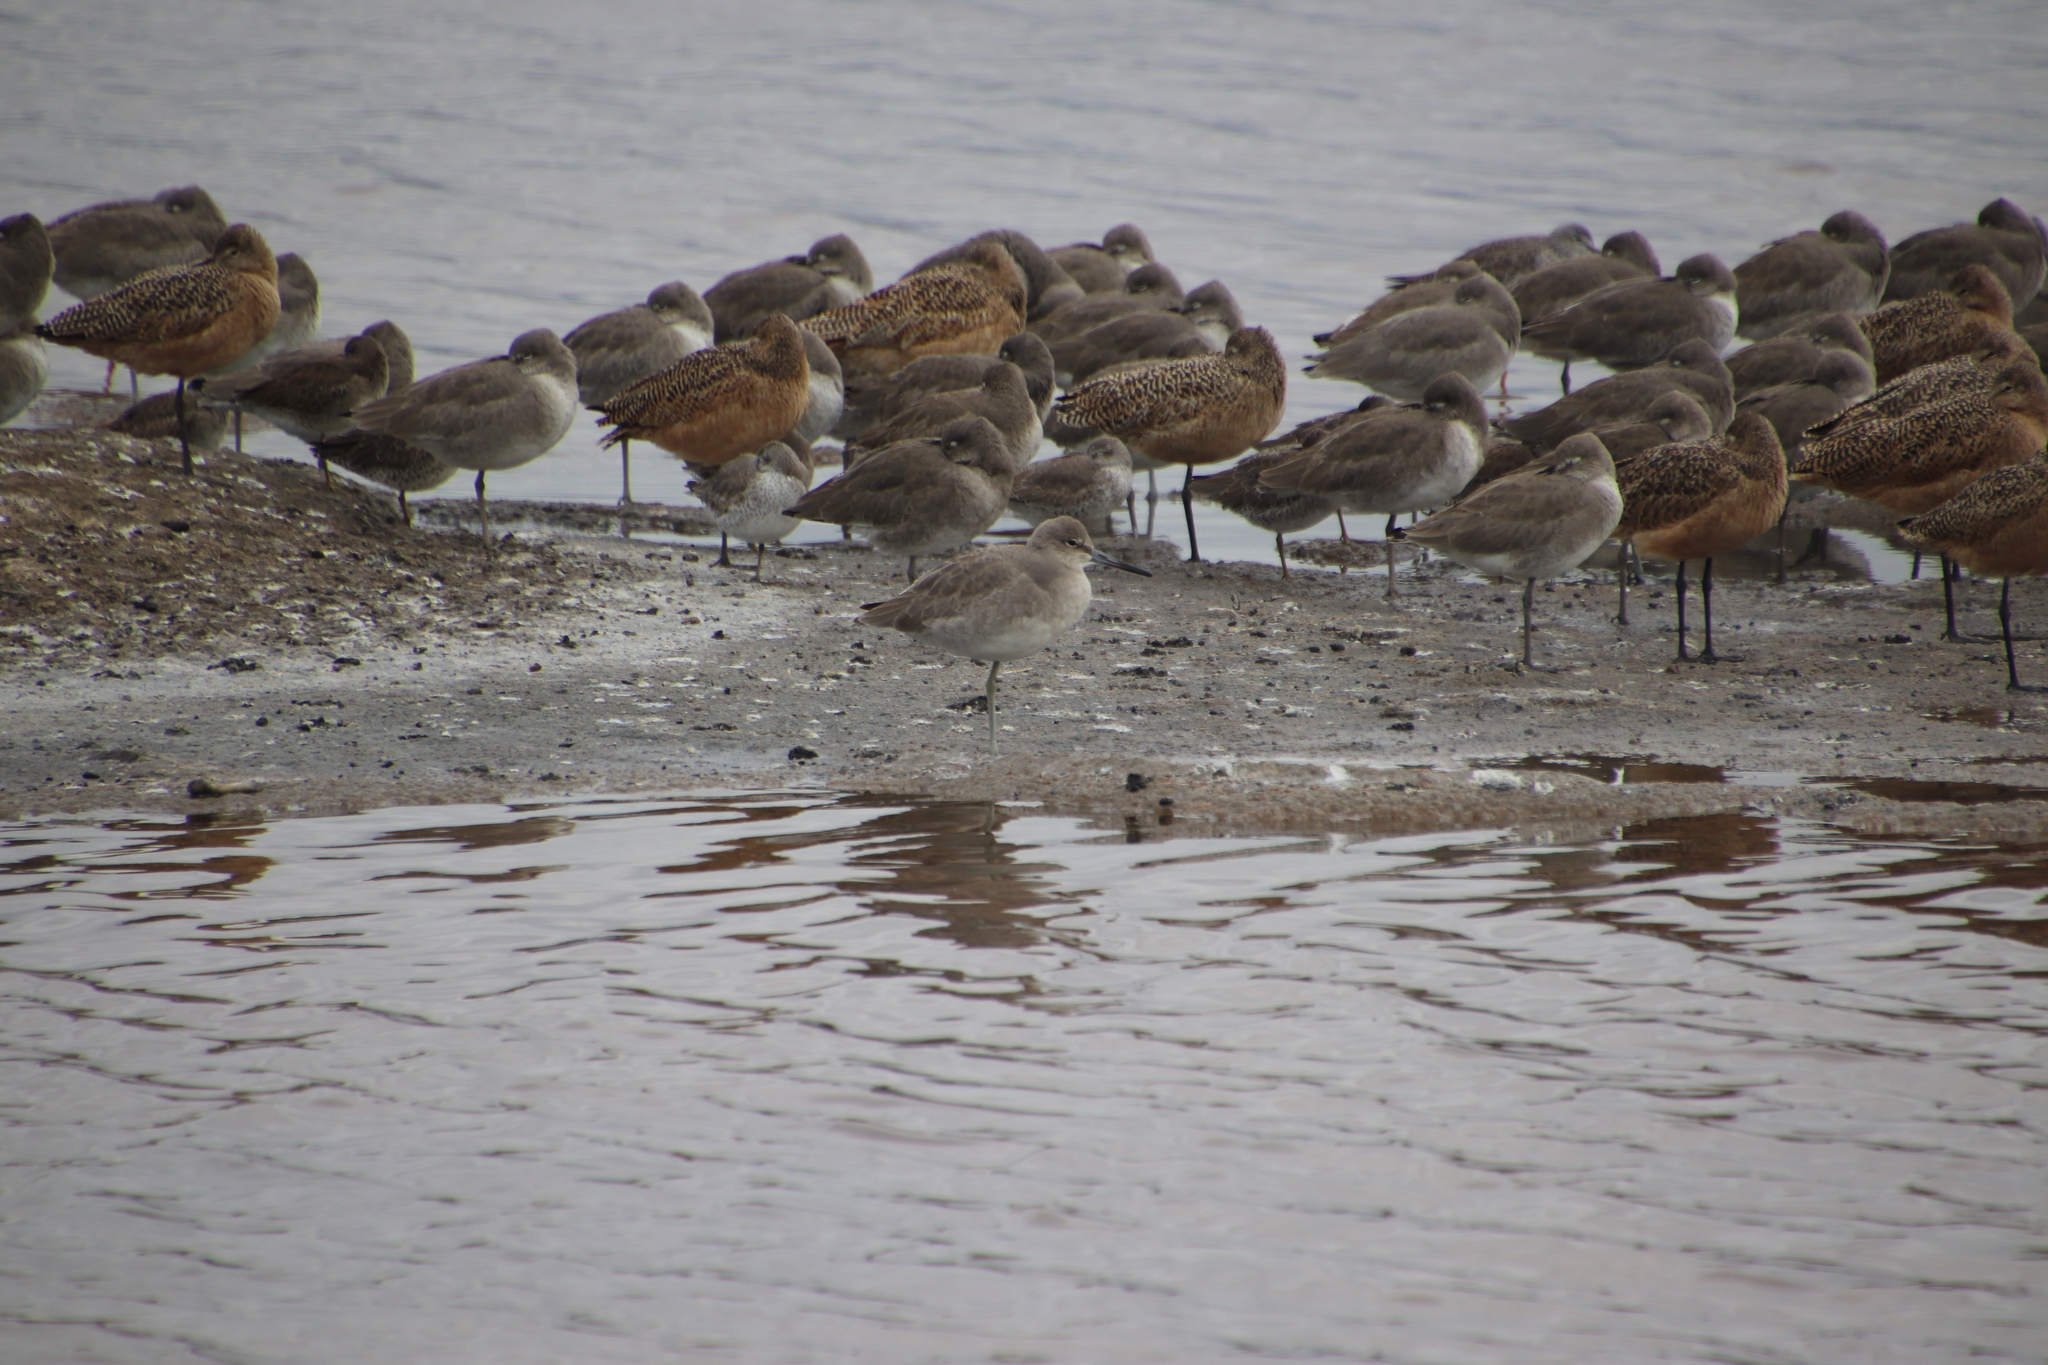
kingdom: Animalia
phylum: Chordata
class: Aves
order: Charadriiformes
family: Scolopacidae
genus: Tringa
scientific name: Tringa semipalmata
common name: Willet
